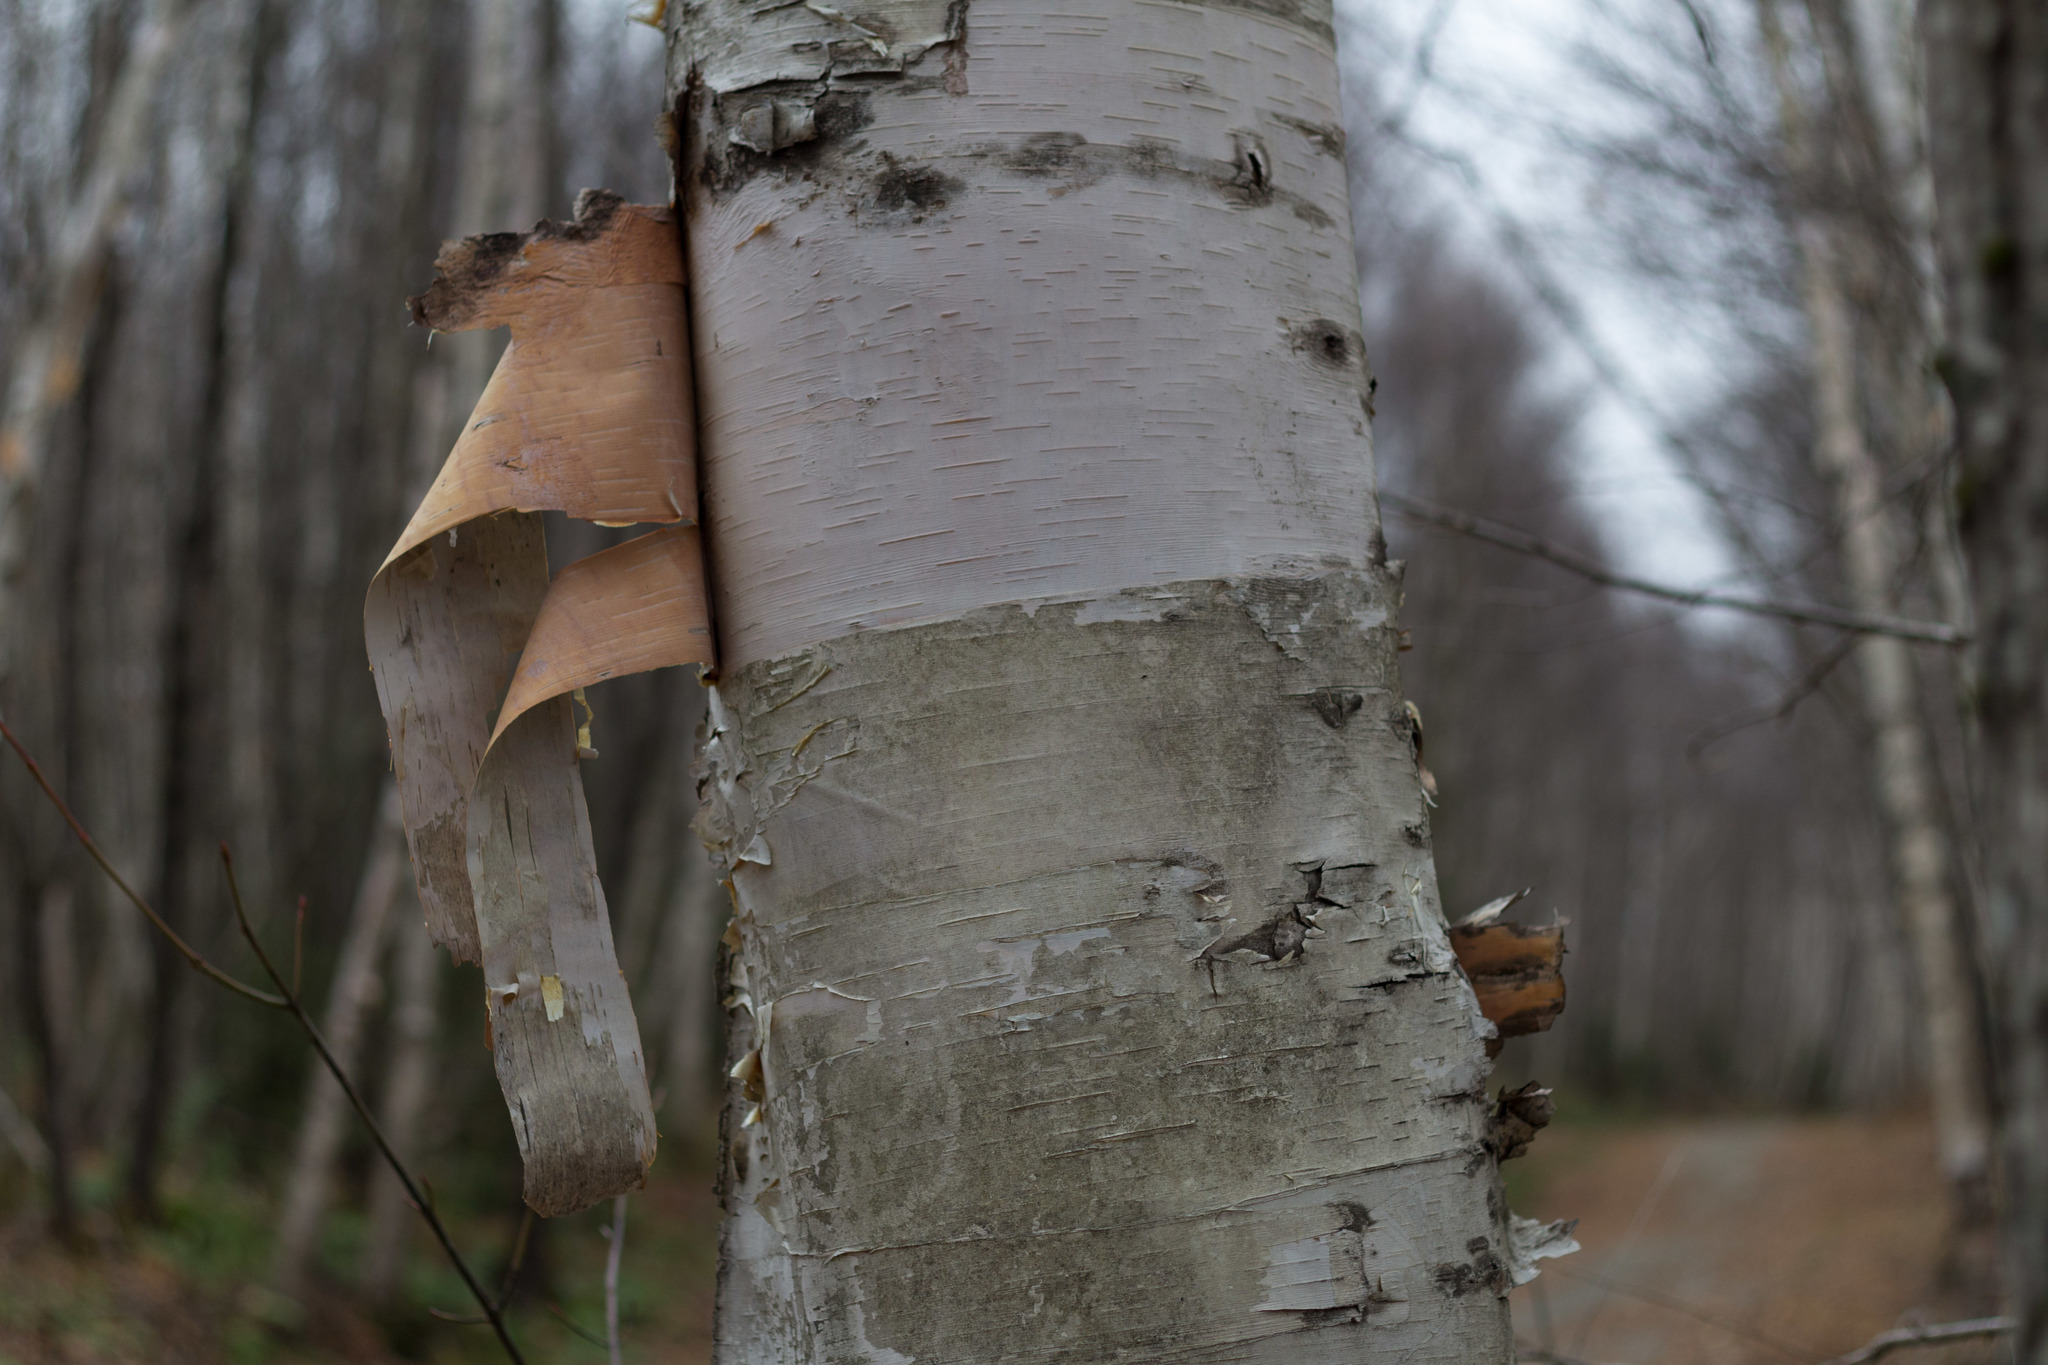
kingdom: Plantae
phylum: Tracheophyta
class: Magnoliopsida
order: Fagales
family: Betulaceae
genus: Betula
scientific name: Betula papyrifera
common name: Paper birch
